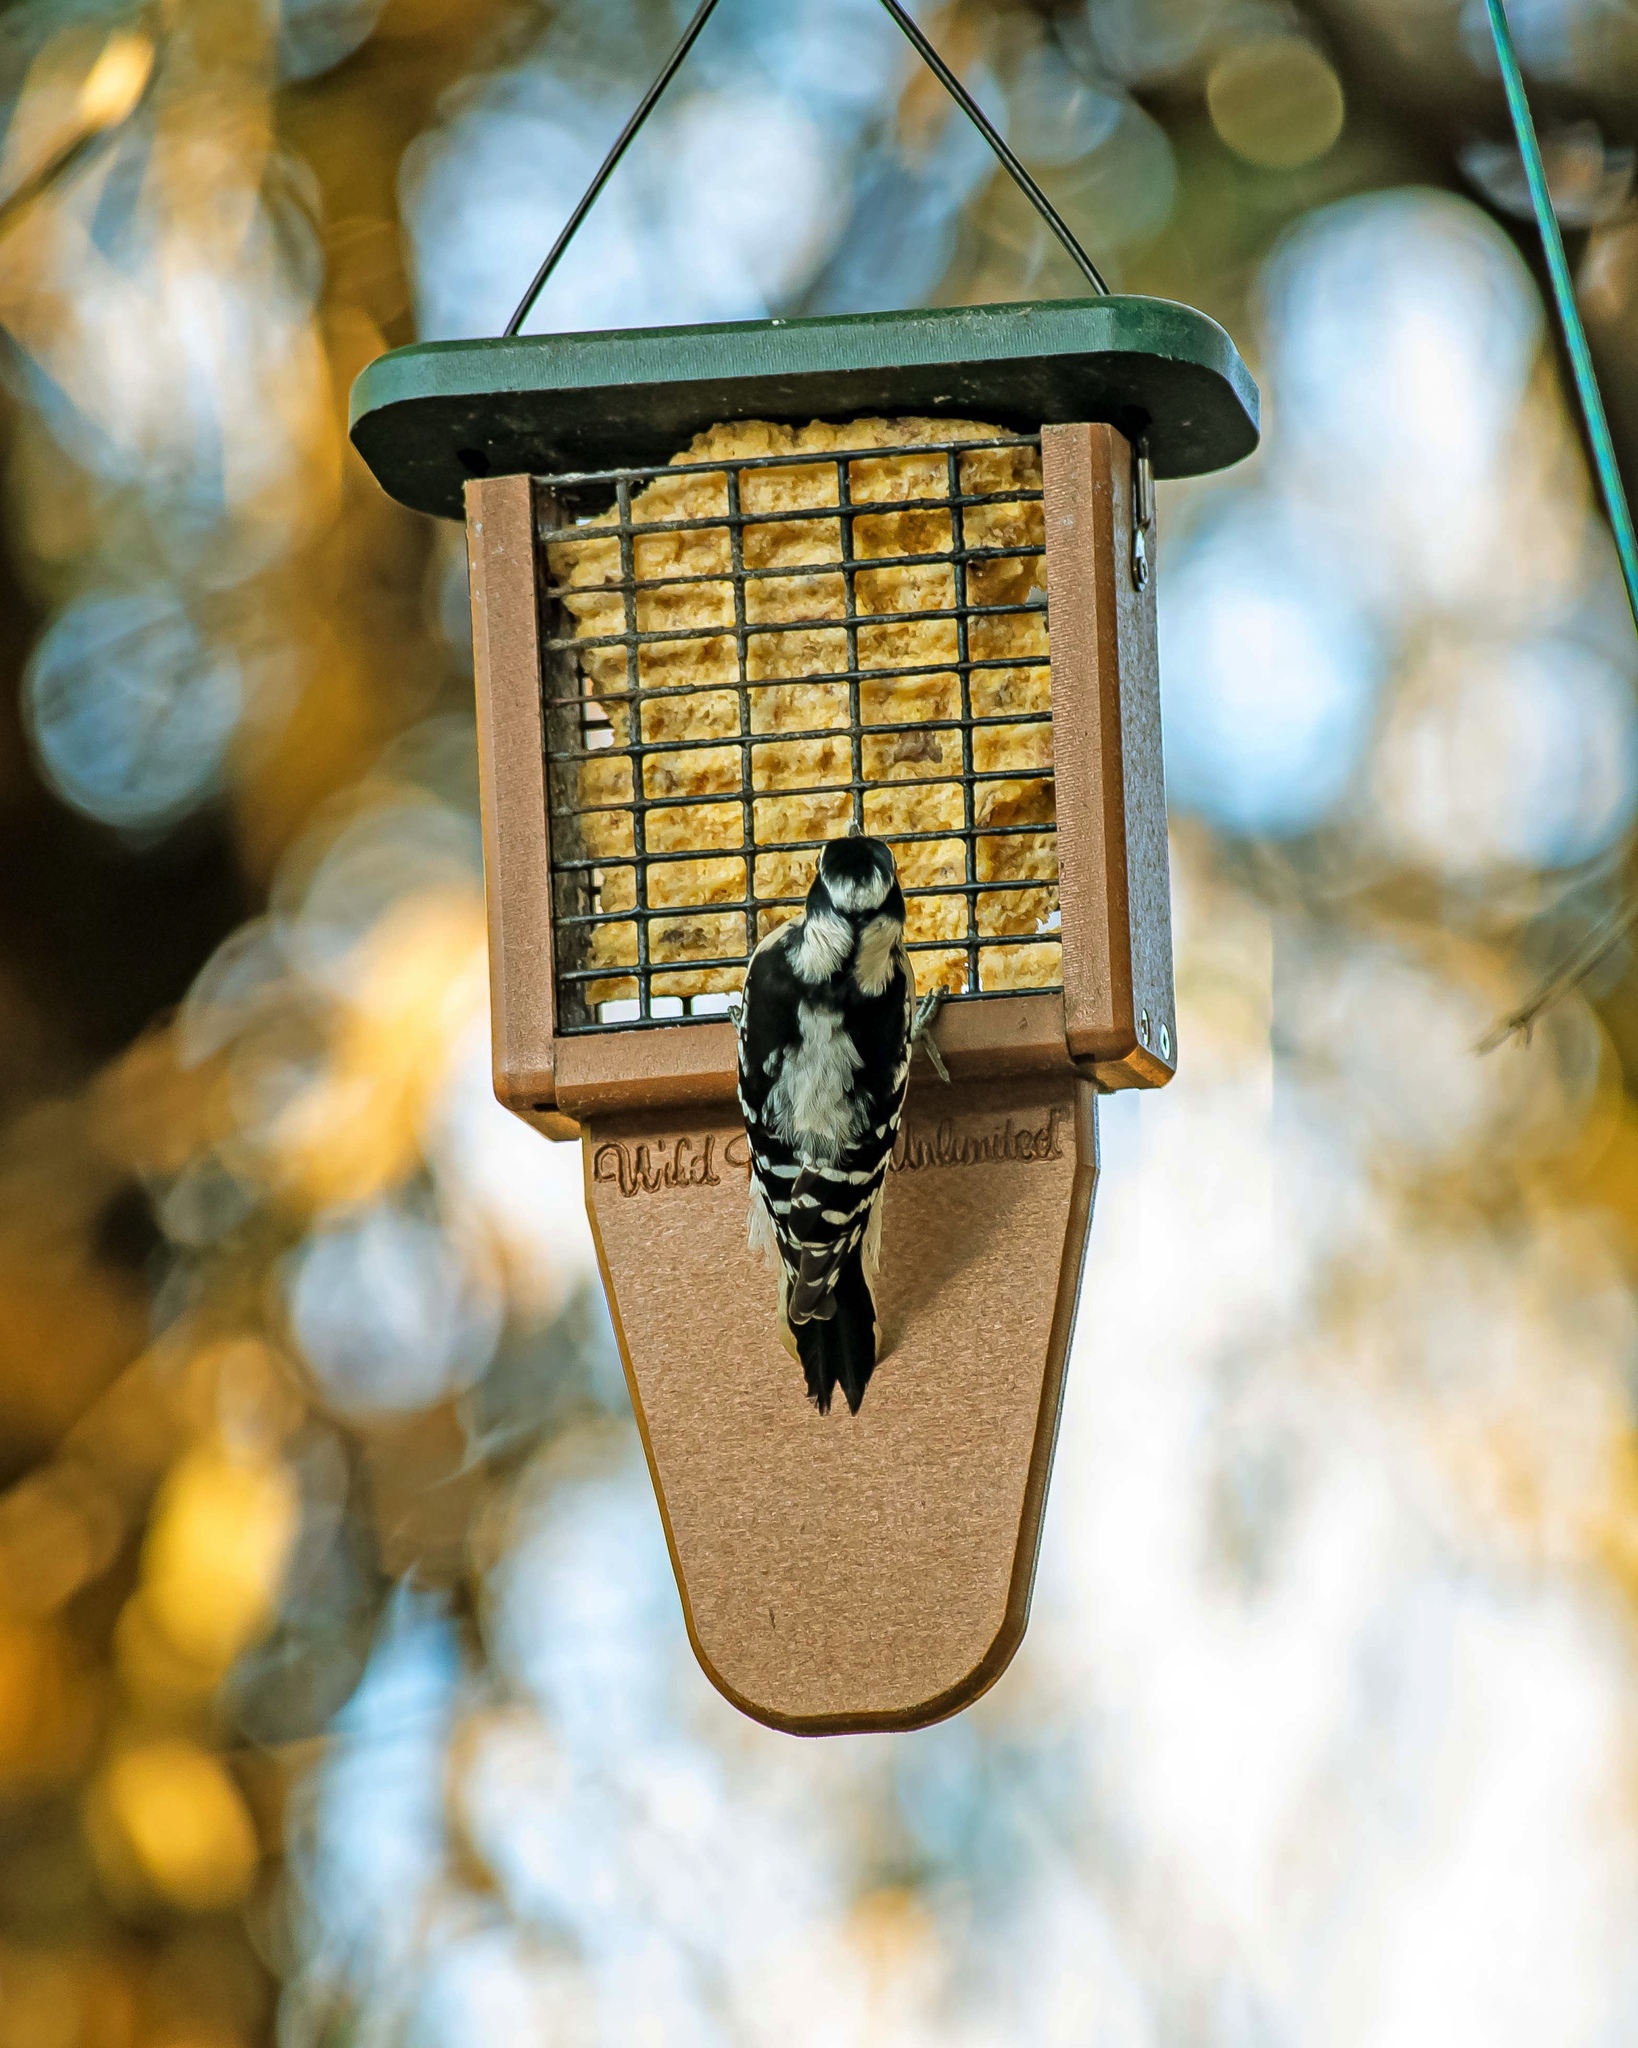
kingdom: Animalia
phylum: Chordata
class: Aves
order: Piciformes
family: Picidae
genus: Dryobates
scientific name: Dryobates pubescens
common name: Downy woodpecker
